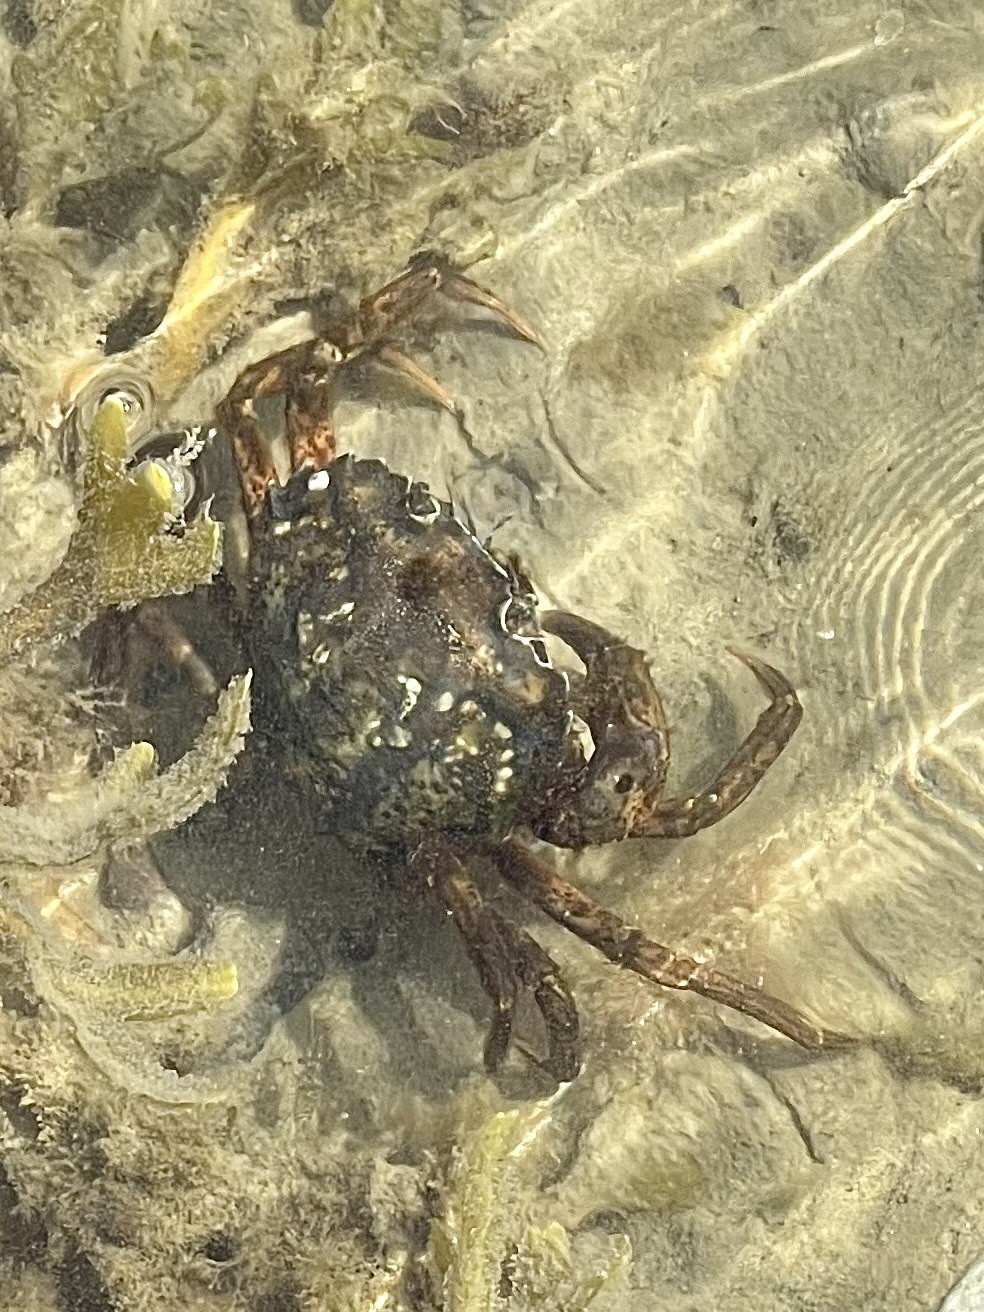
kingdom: Animalia
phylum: Arthropoda
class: Malacostraca
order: Decapoda
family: Carcinidae
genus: Carcinus
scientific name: Carcinus maenas
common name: European green crab
